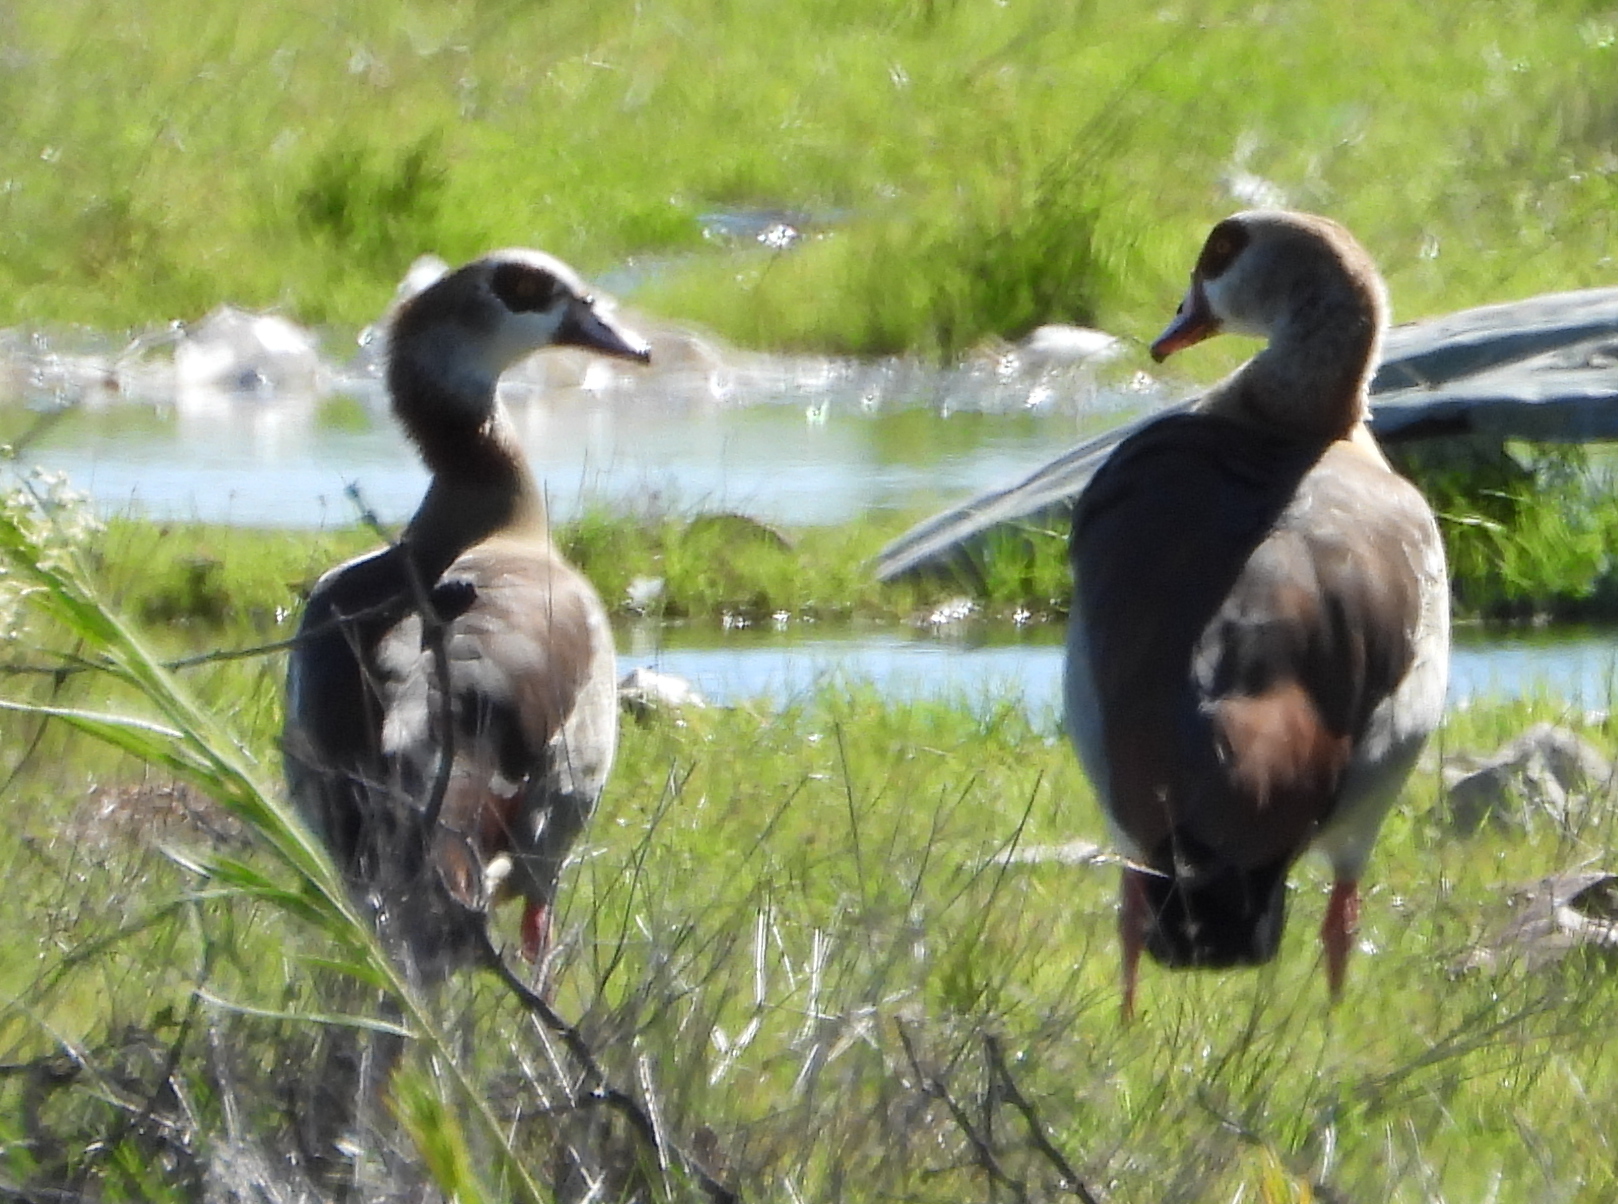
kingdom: Animalia
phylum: Chordata
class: Aves
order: Anseriformes
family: Anatidae
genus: Alopochen
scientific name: Alopochen aegyptiaca
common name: Egyptian goose
